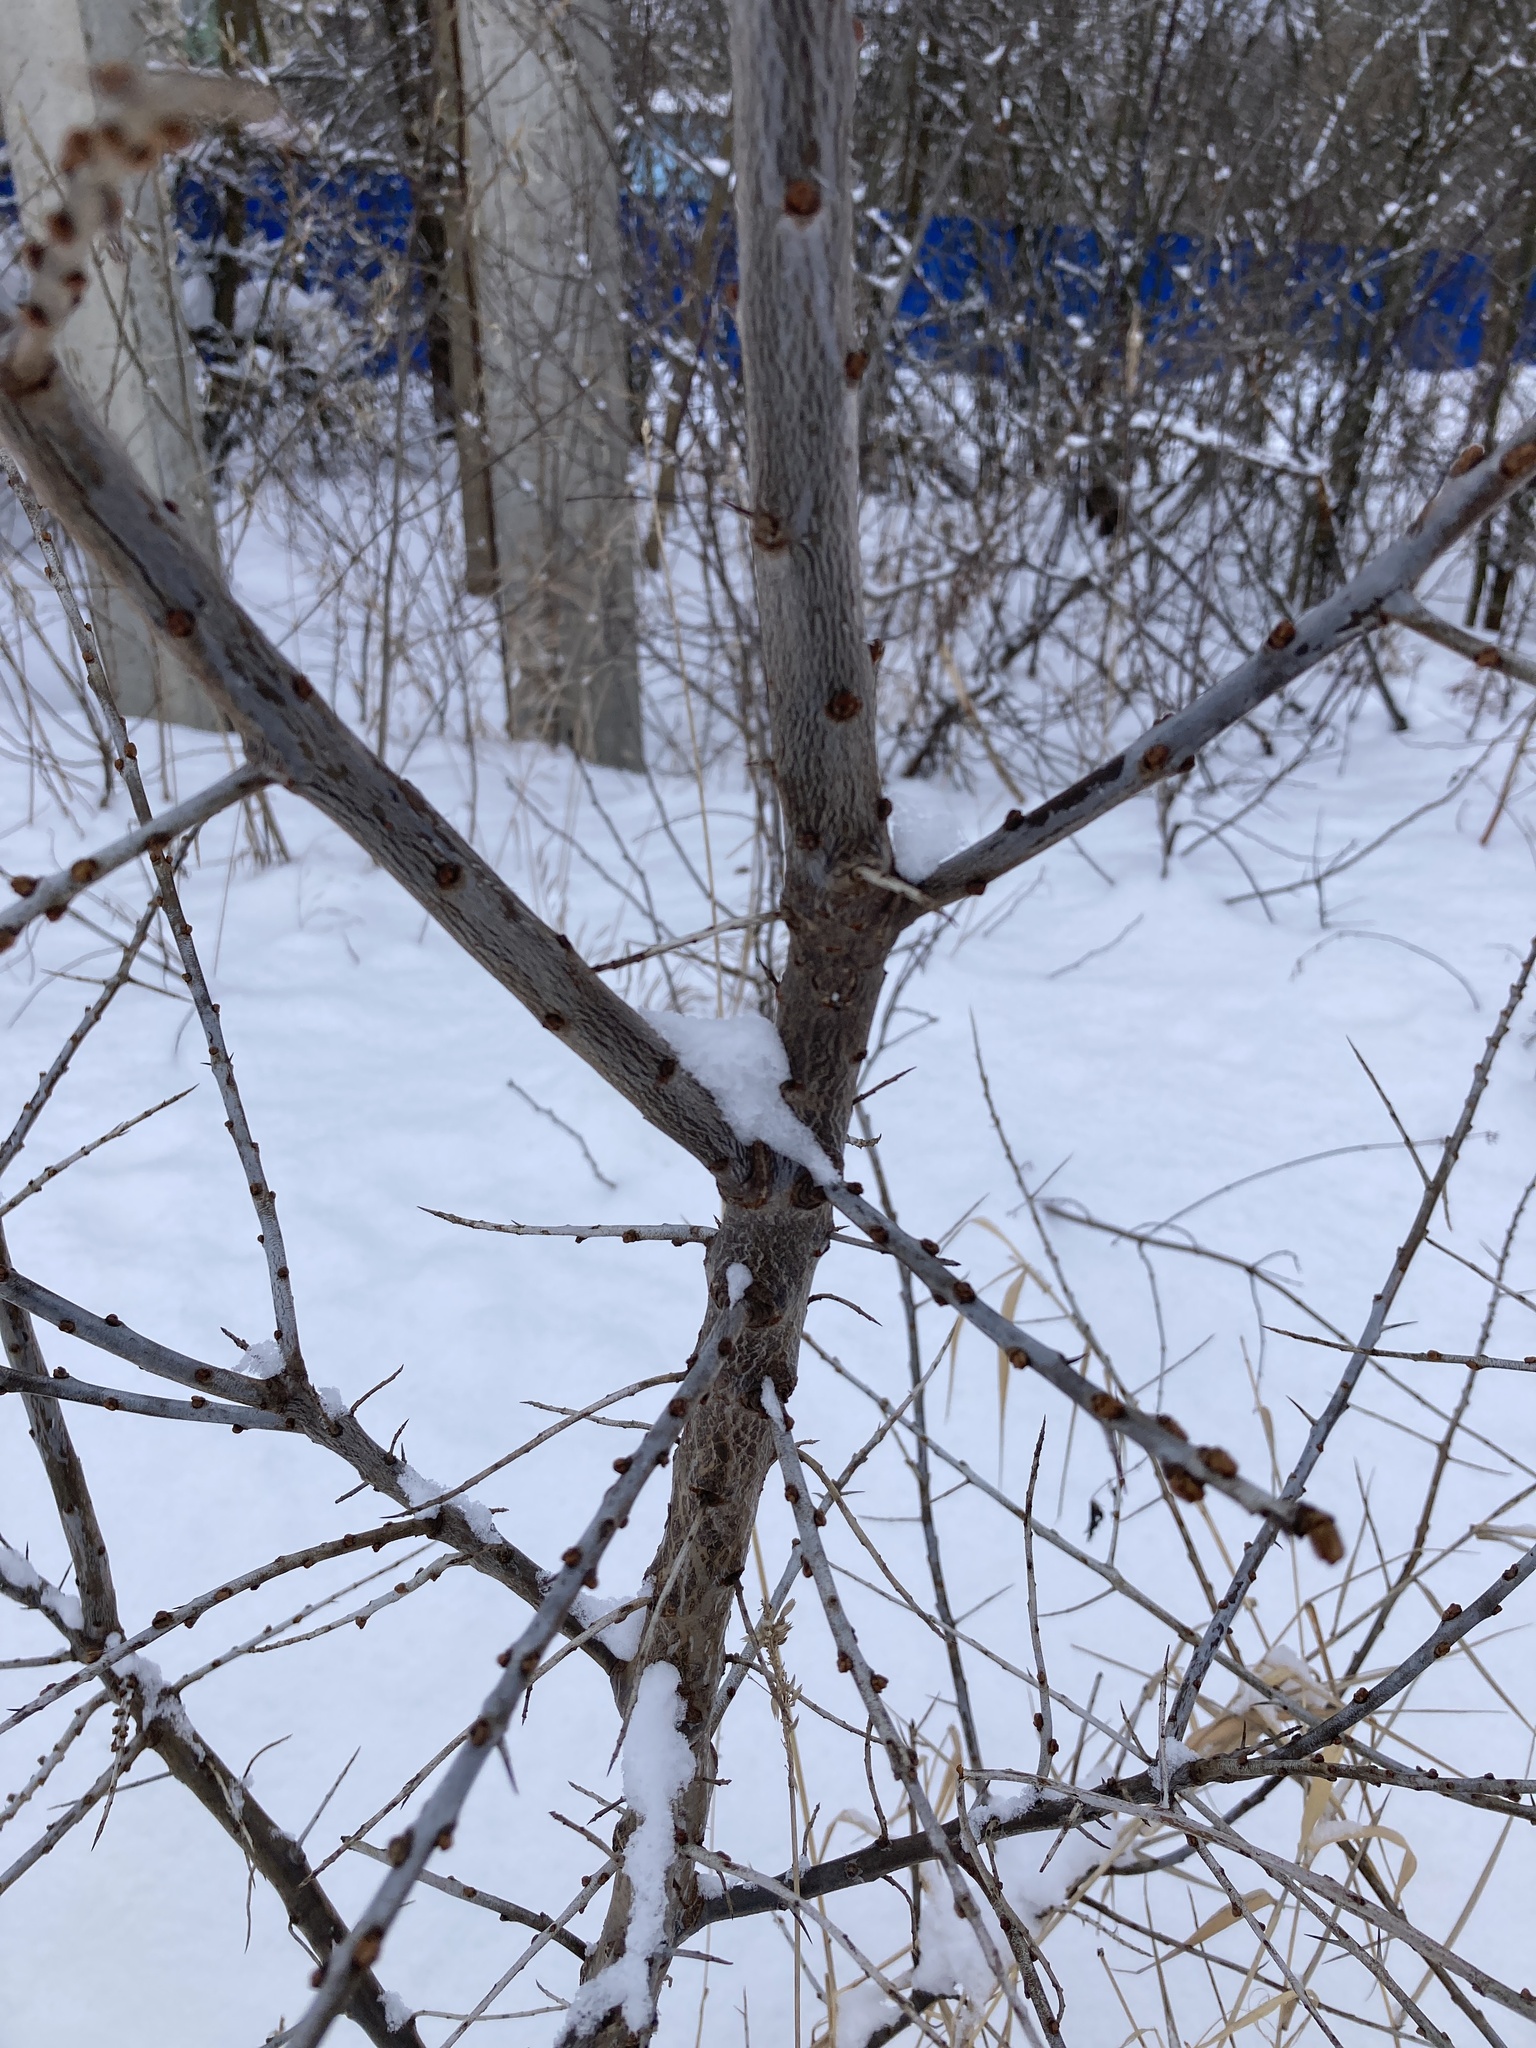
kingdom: Plantae
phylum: Tracheophyta
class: Magnoliopsida
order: Rosales
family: Elaeagnaceae
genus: Hippophae
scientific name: Hippophae rhamnoides
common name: Sea-buckthorn
